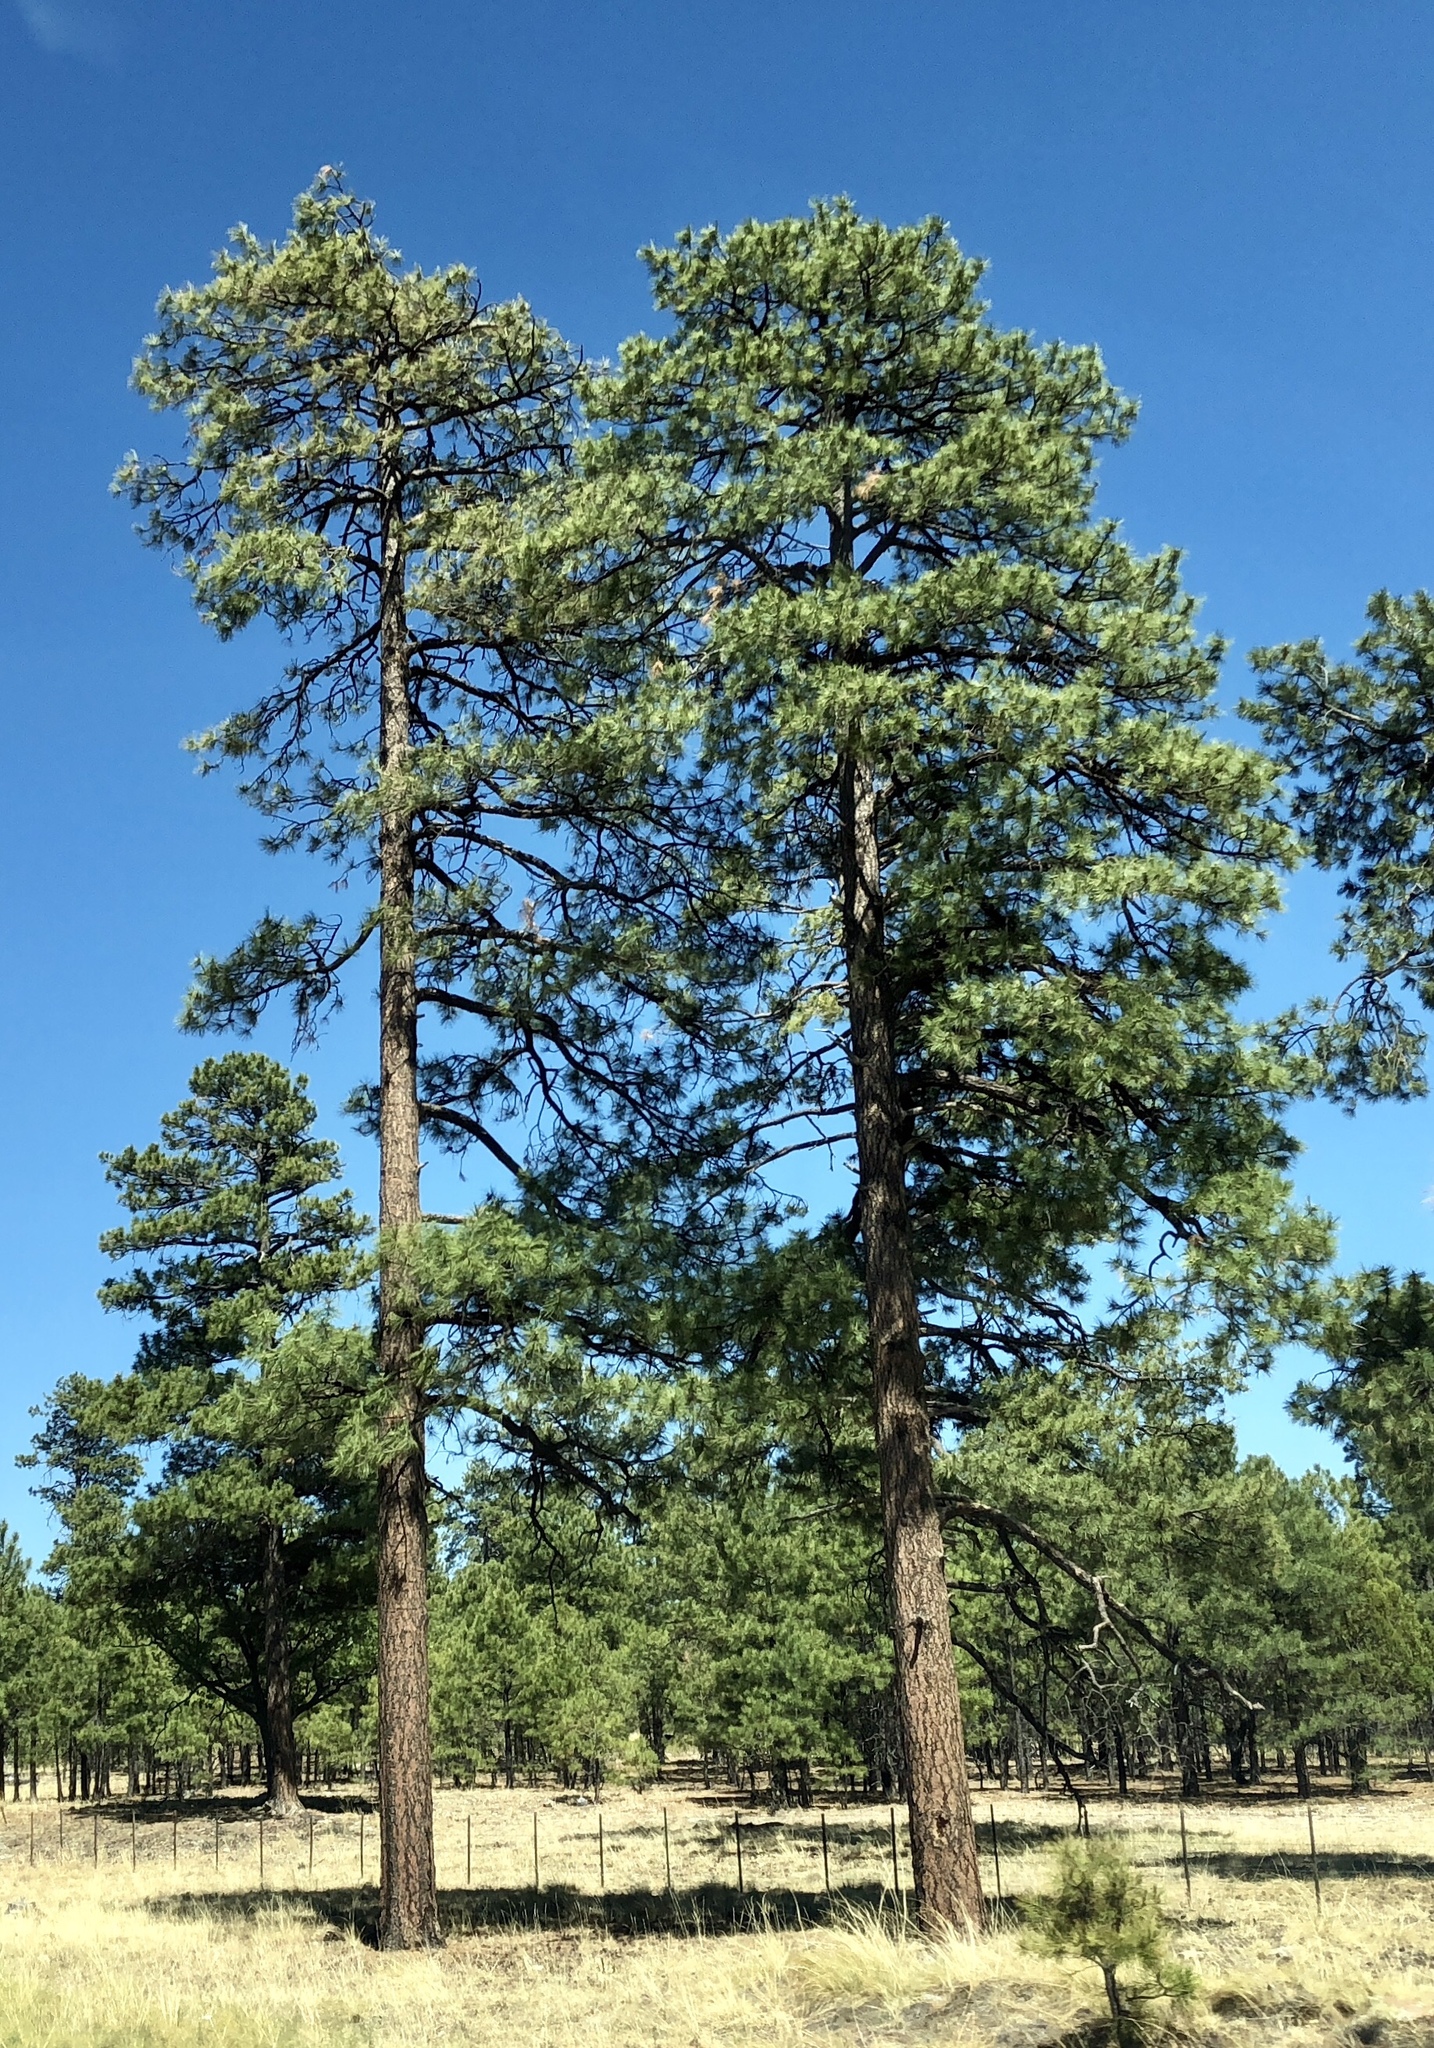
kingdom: Plantae
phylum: Tracheophyta
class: Pinopsida
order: Pinales
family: Pinaceae
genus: Pinus
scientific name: Pinus ponderosa
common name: Western yellow-pine
